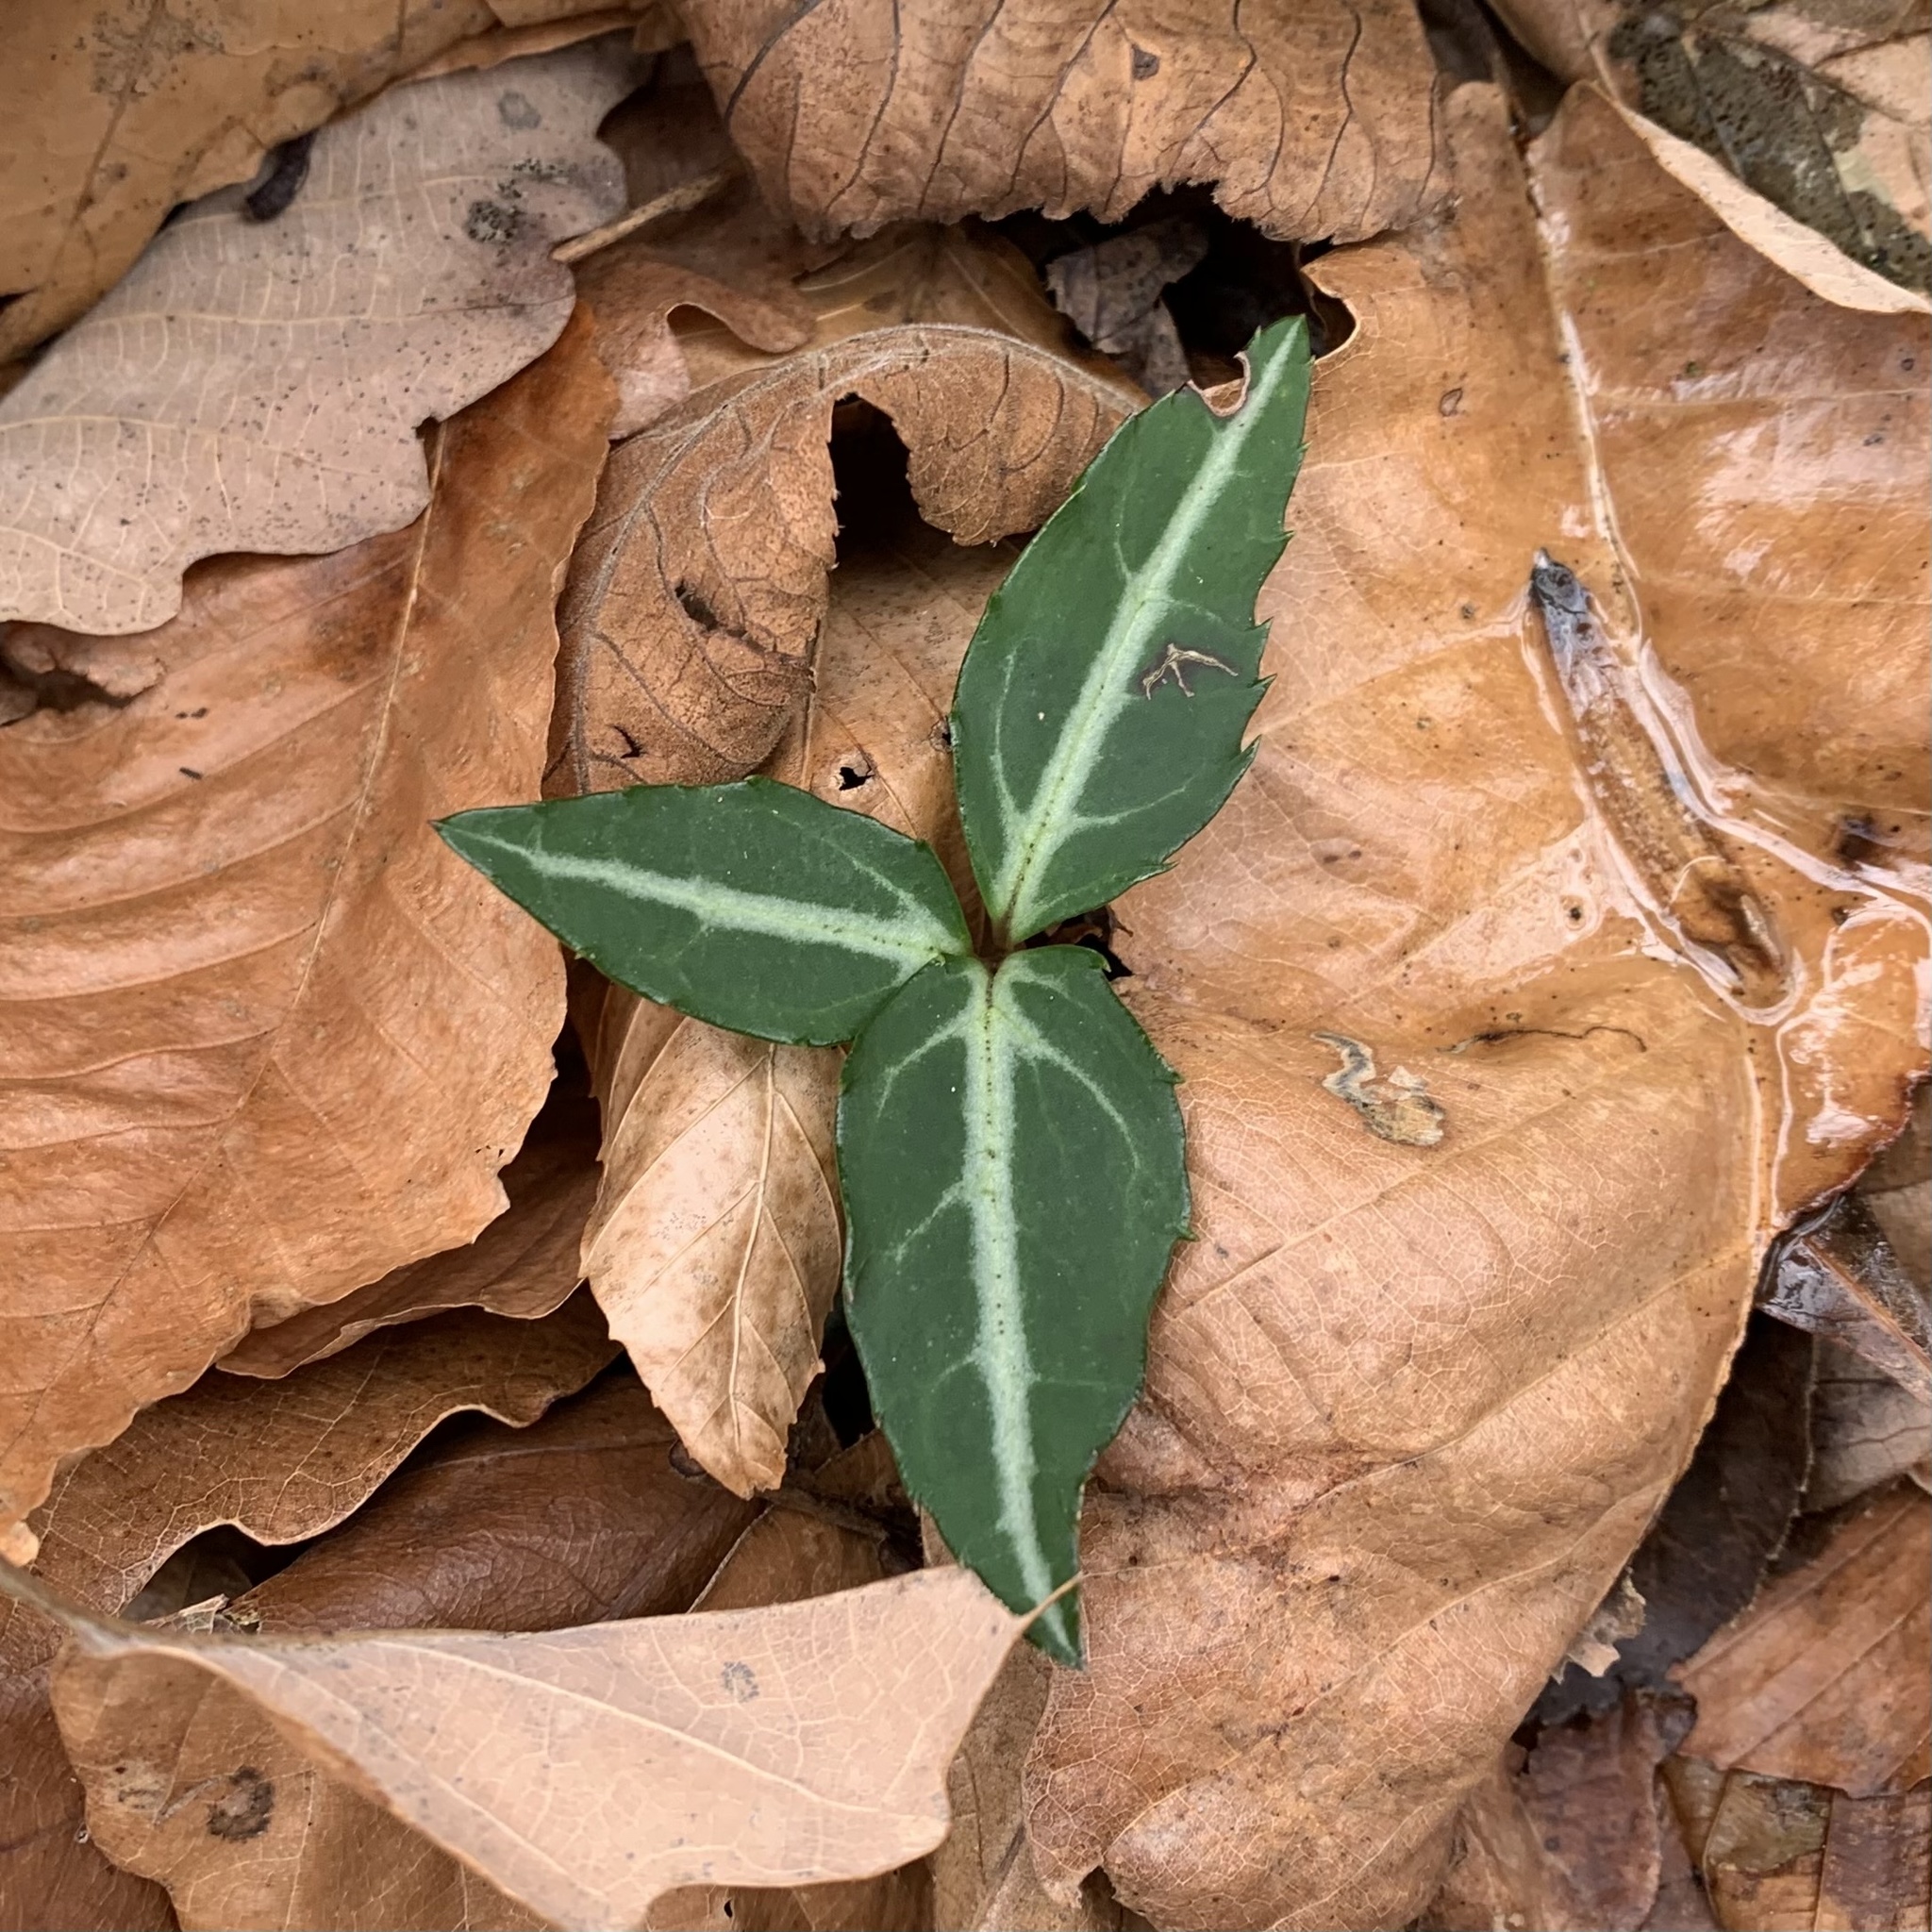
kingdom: Plantae
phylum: Tracheophyta
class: Magnoliopsida
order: Ericales
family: Ericaceae
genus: Chimaphila
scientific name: Chimaphila maculata
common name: Spotted pipsissewa
